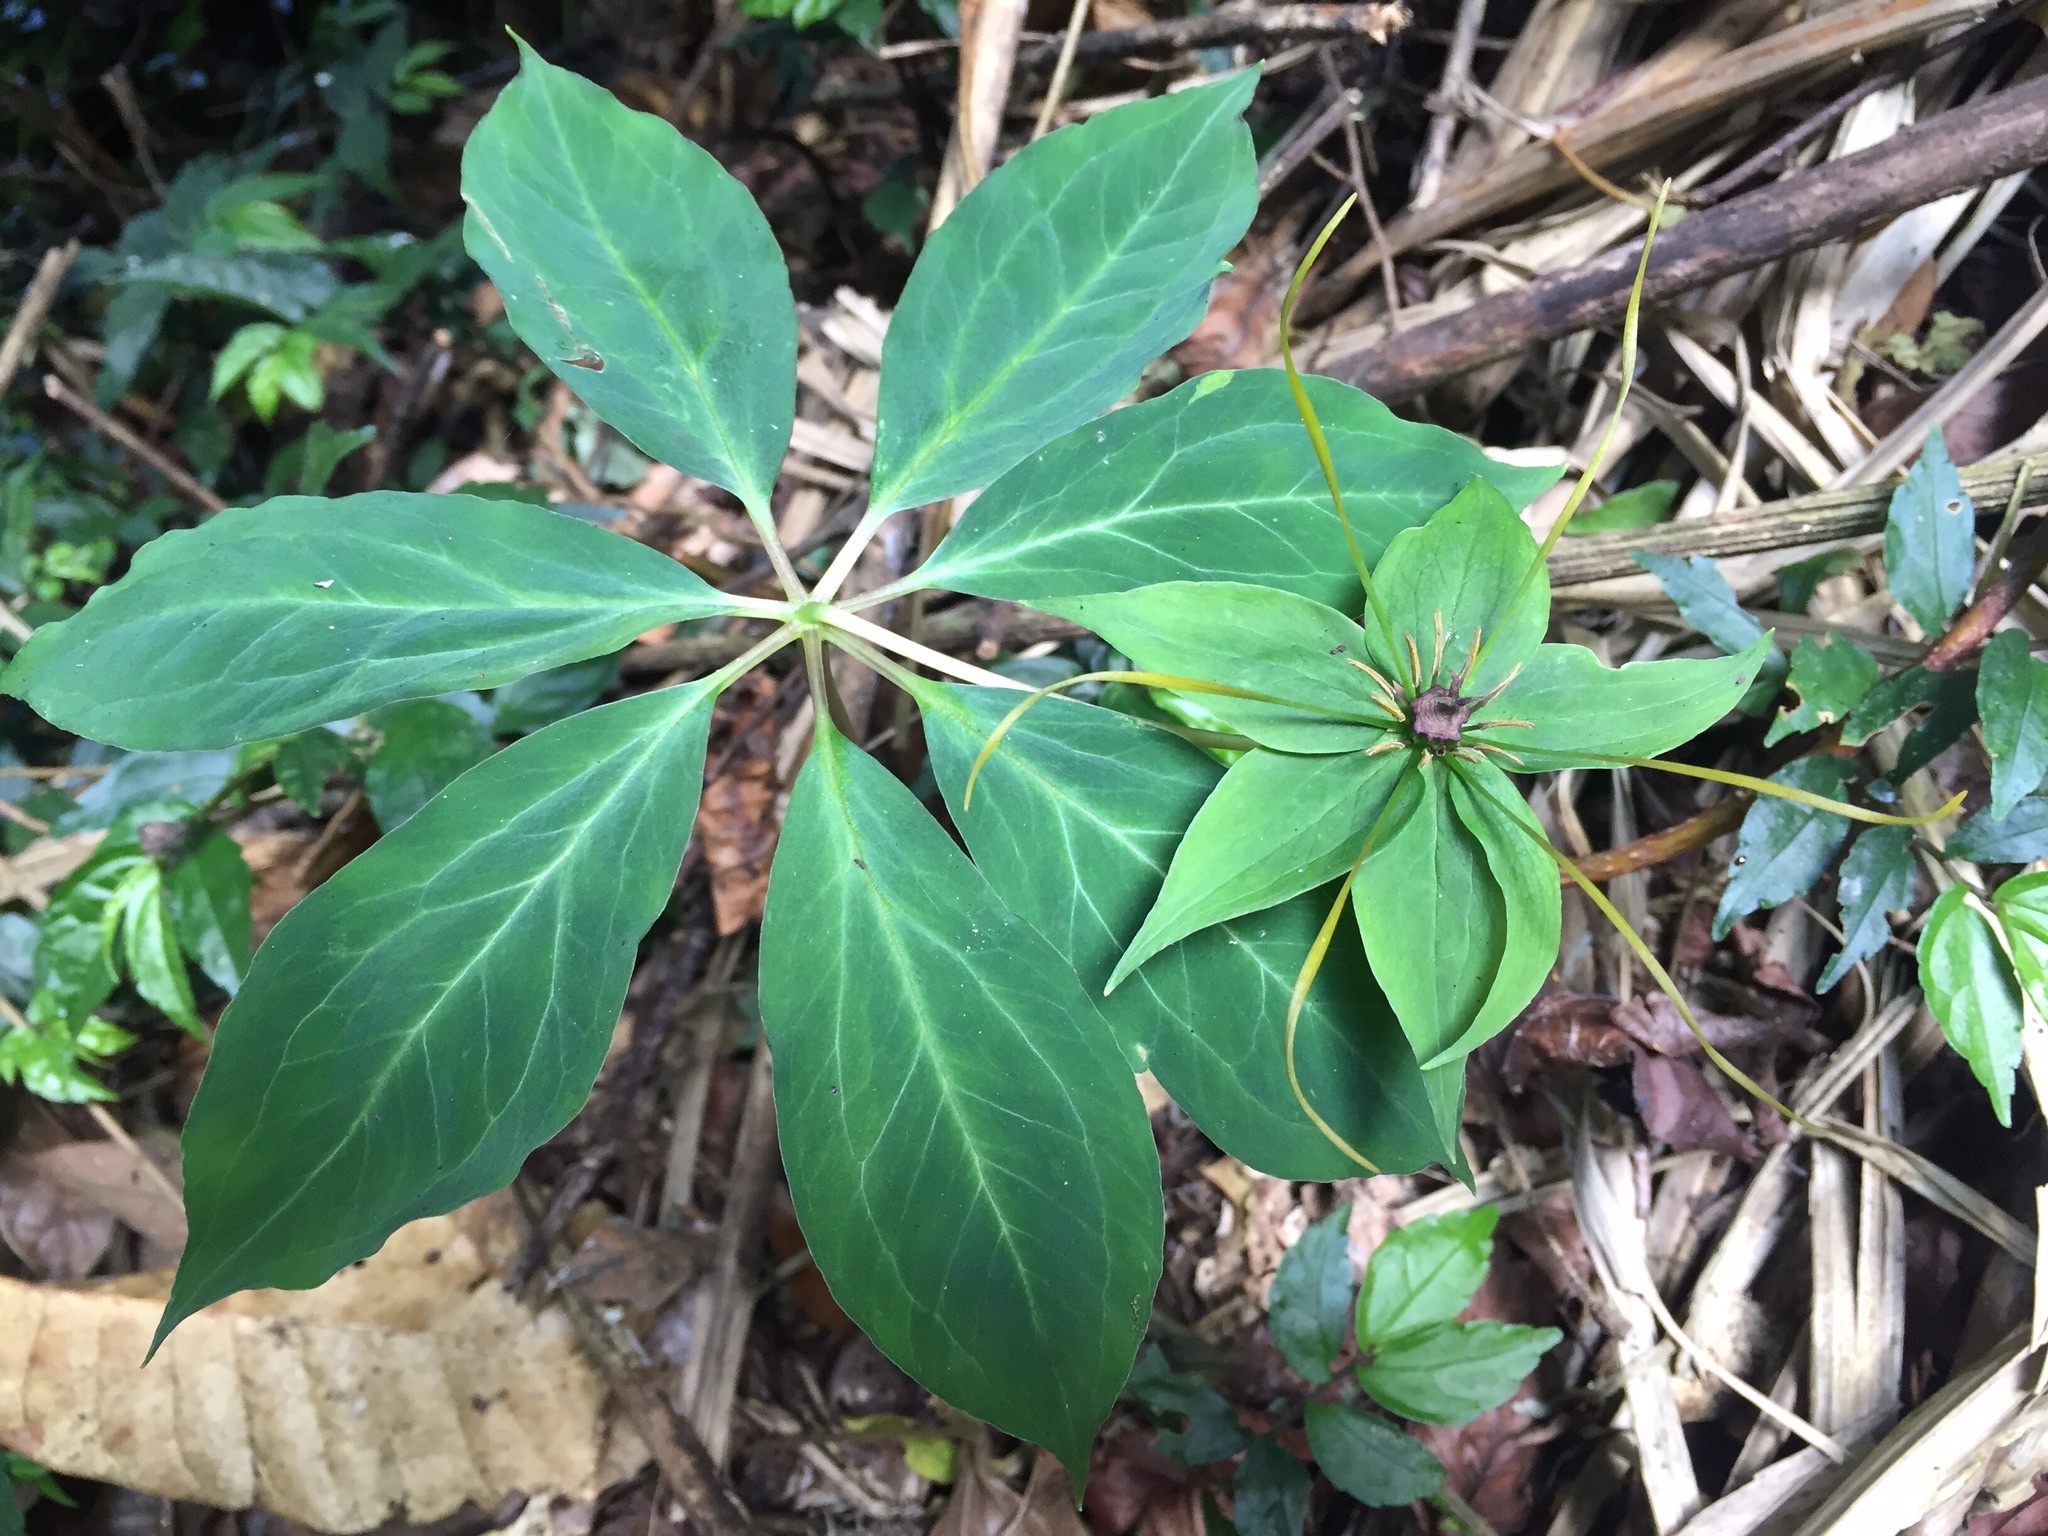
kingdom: Plantae
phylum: Tracheophyta
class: Liliopsida
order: Liliales
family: Melanthiaceae
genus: Paris
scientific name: Paris lancifolia
